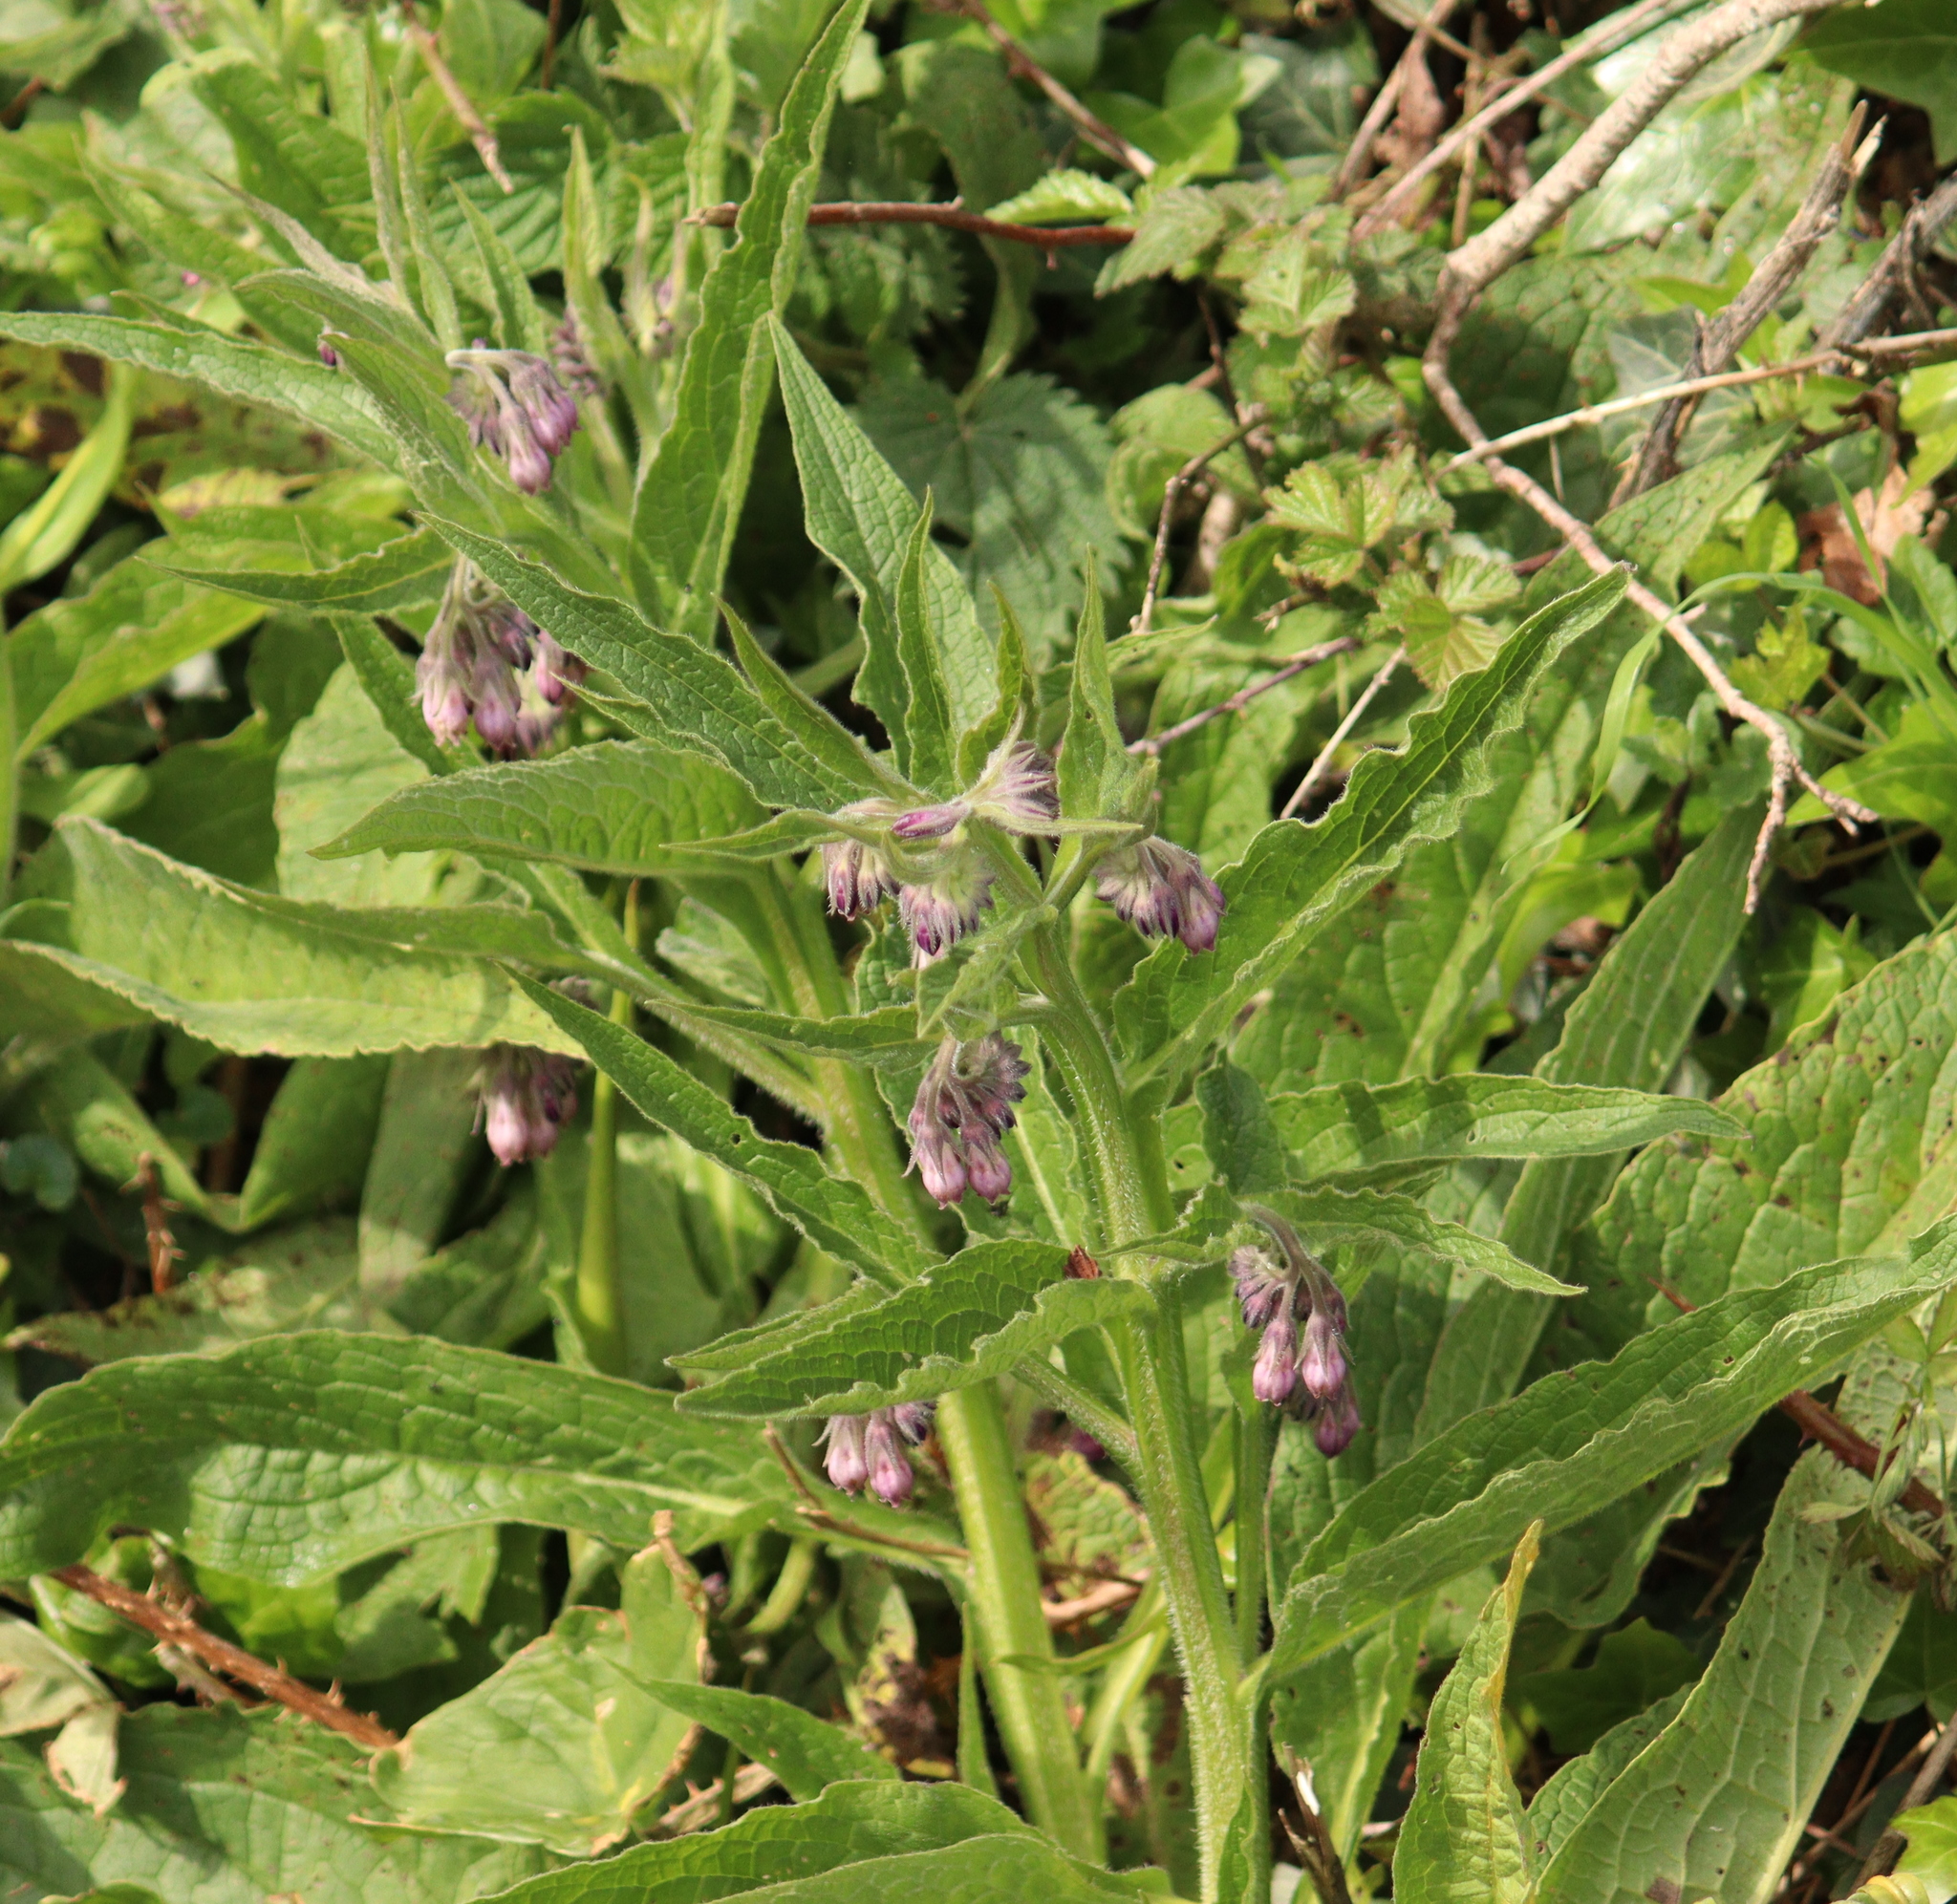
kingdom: Plantae
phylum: Tracheophyta
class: Magnoliopsida
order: Boraginales
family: Boraginaceae
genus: Symphytum
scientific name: Symphytum officinale
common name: Common comfrey
